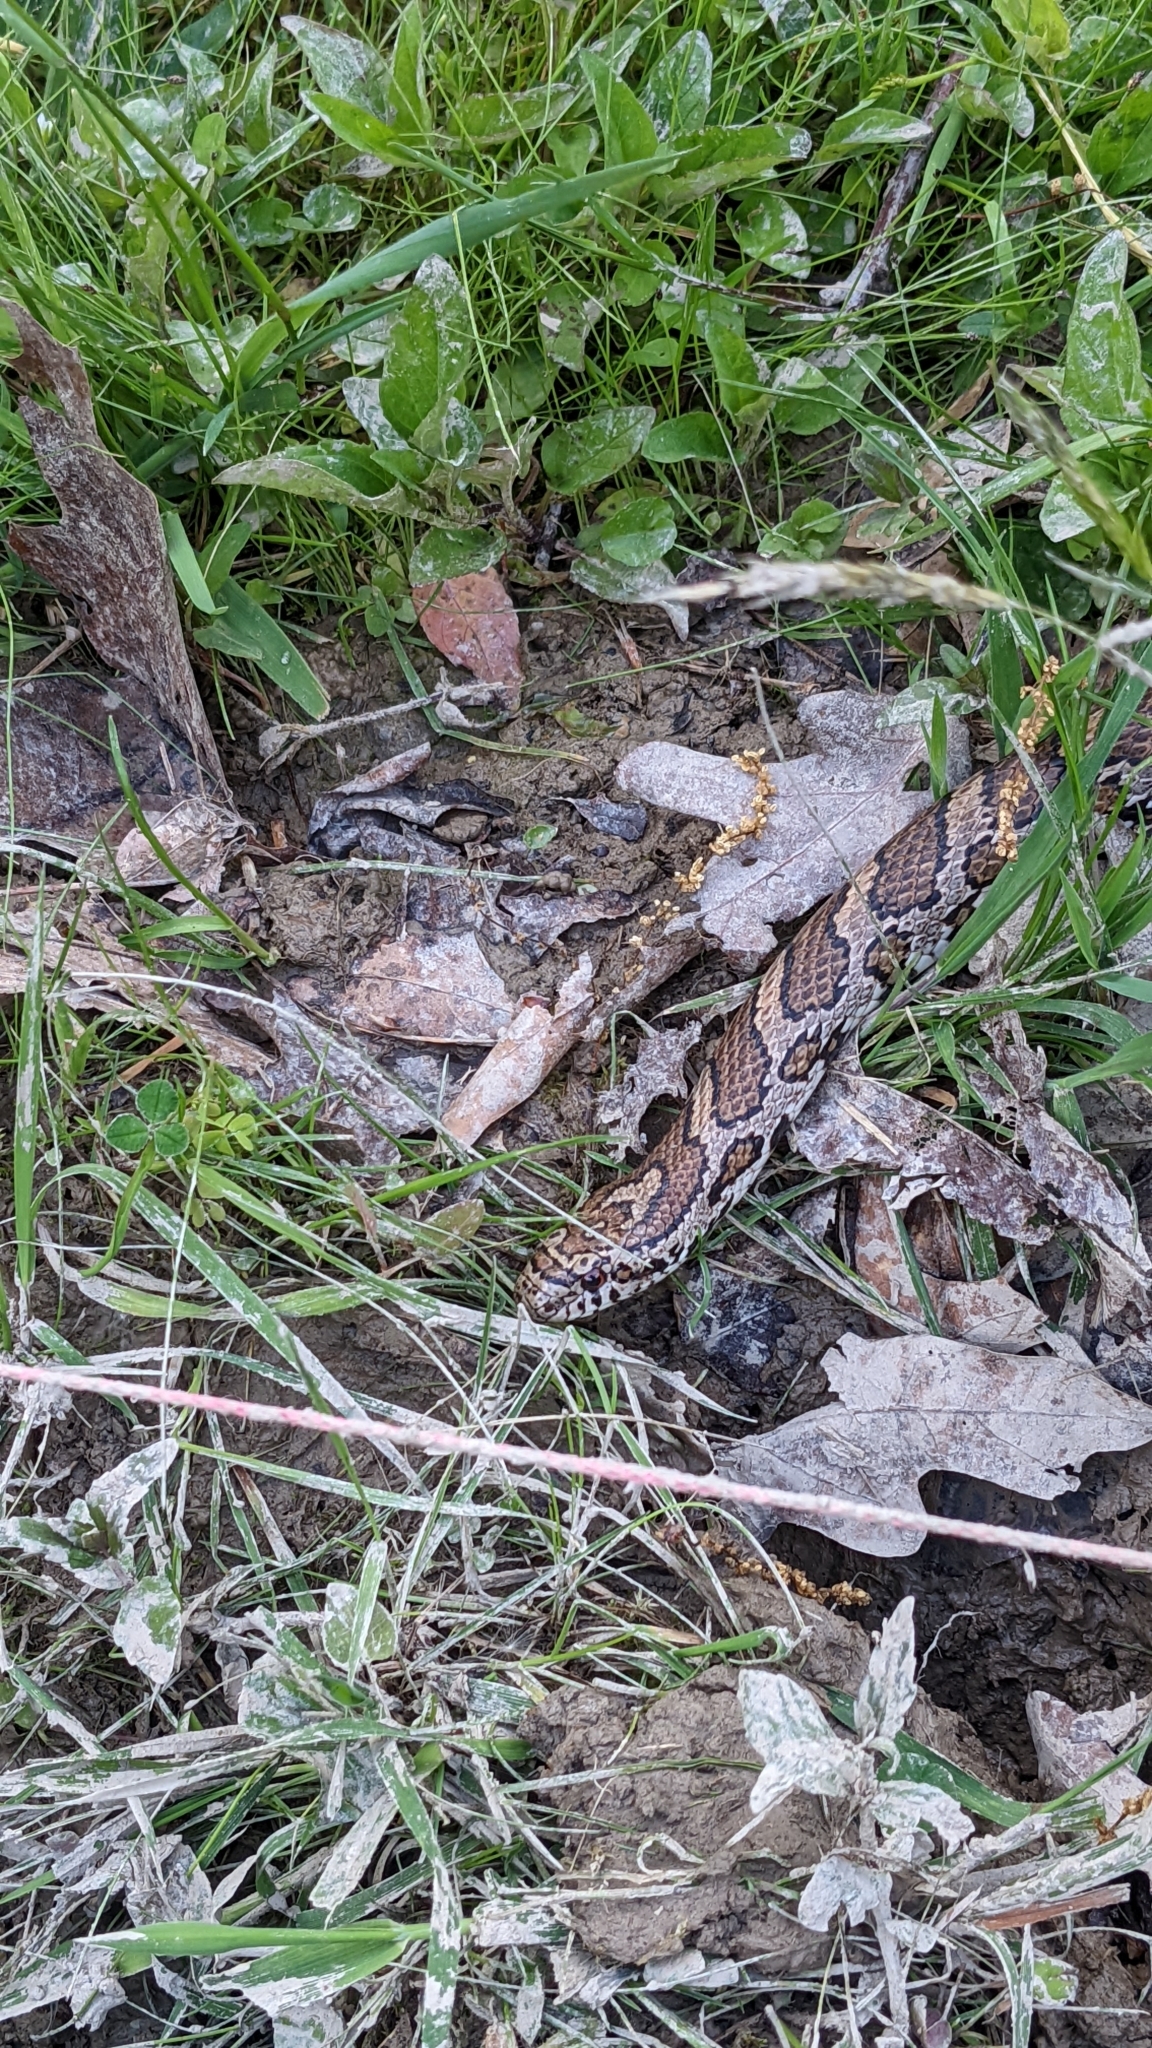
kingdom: Animalia
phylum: Chordata
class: Squamata
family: Colubridae
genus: Lampropeltis
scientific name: Lampropeltis triangulum
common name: Eastern milksnake
